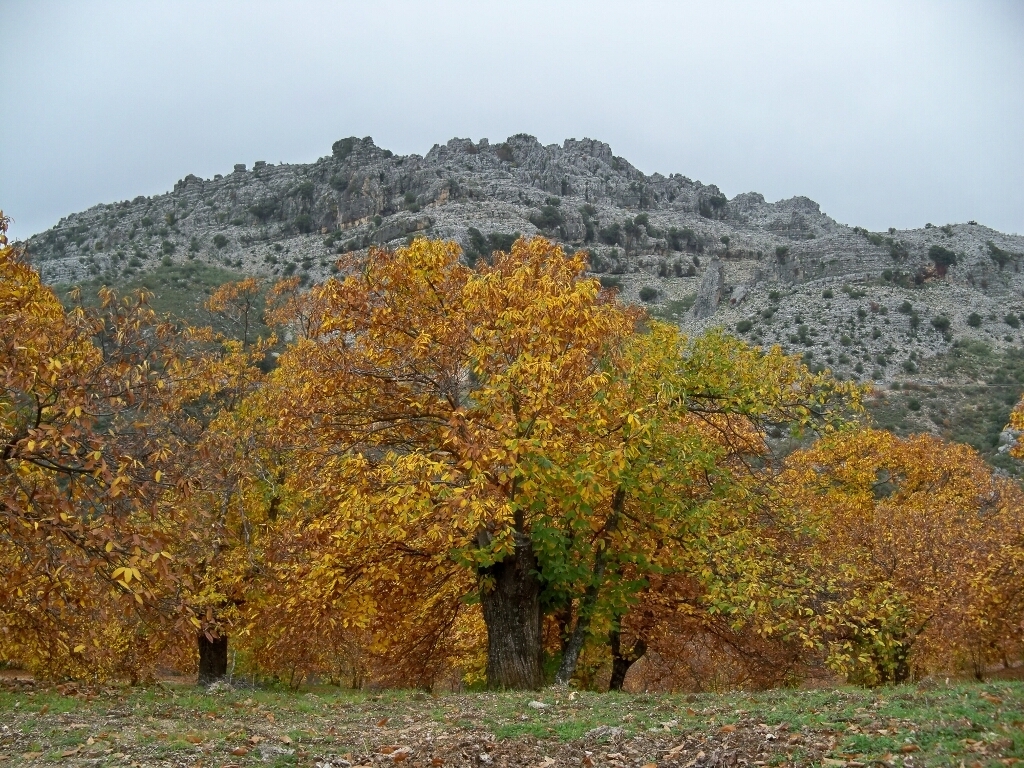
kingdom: Plantae
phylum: Tracheophyta
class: Magnoliopsida
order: Fagales
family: Fagaceae
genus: Castanea
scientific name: Castanea sativa
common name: Sweet chestnut
